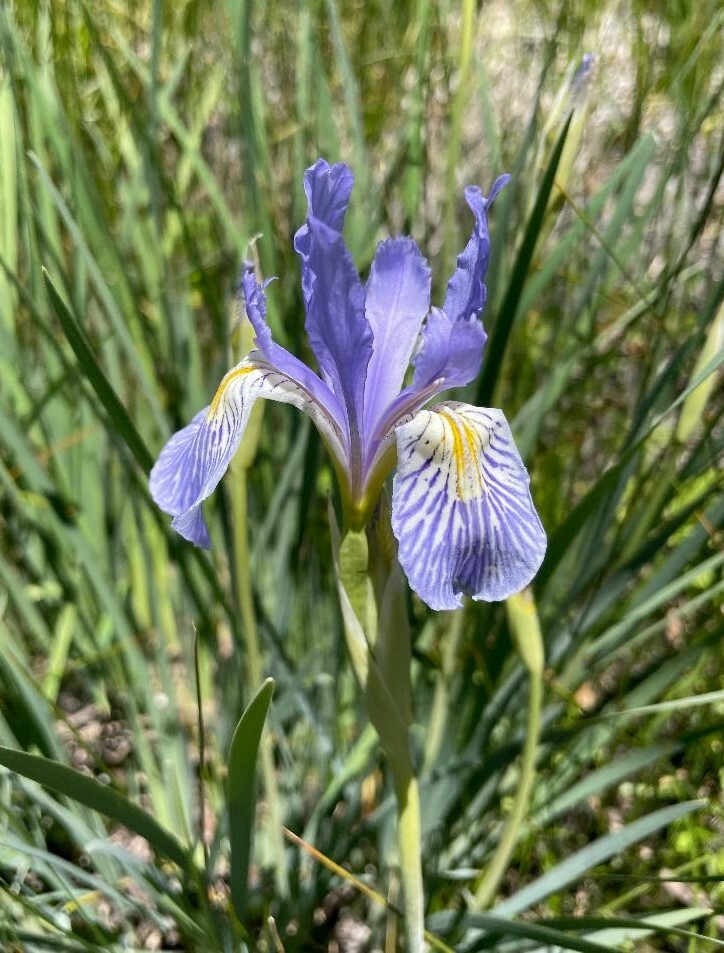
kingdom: Plantae
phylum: Tracheophyta
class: Liliopsida
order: Asparagales
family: Iridaceae
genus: Iris
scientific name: Iris missouriensis
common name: Rocky mountain iris
